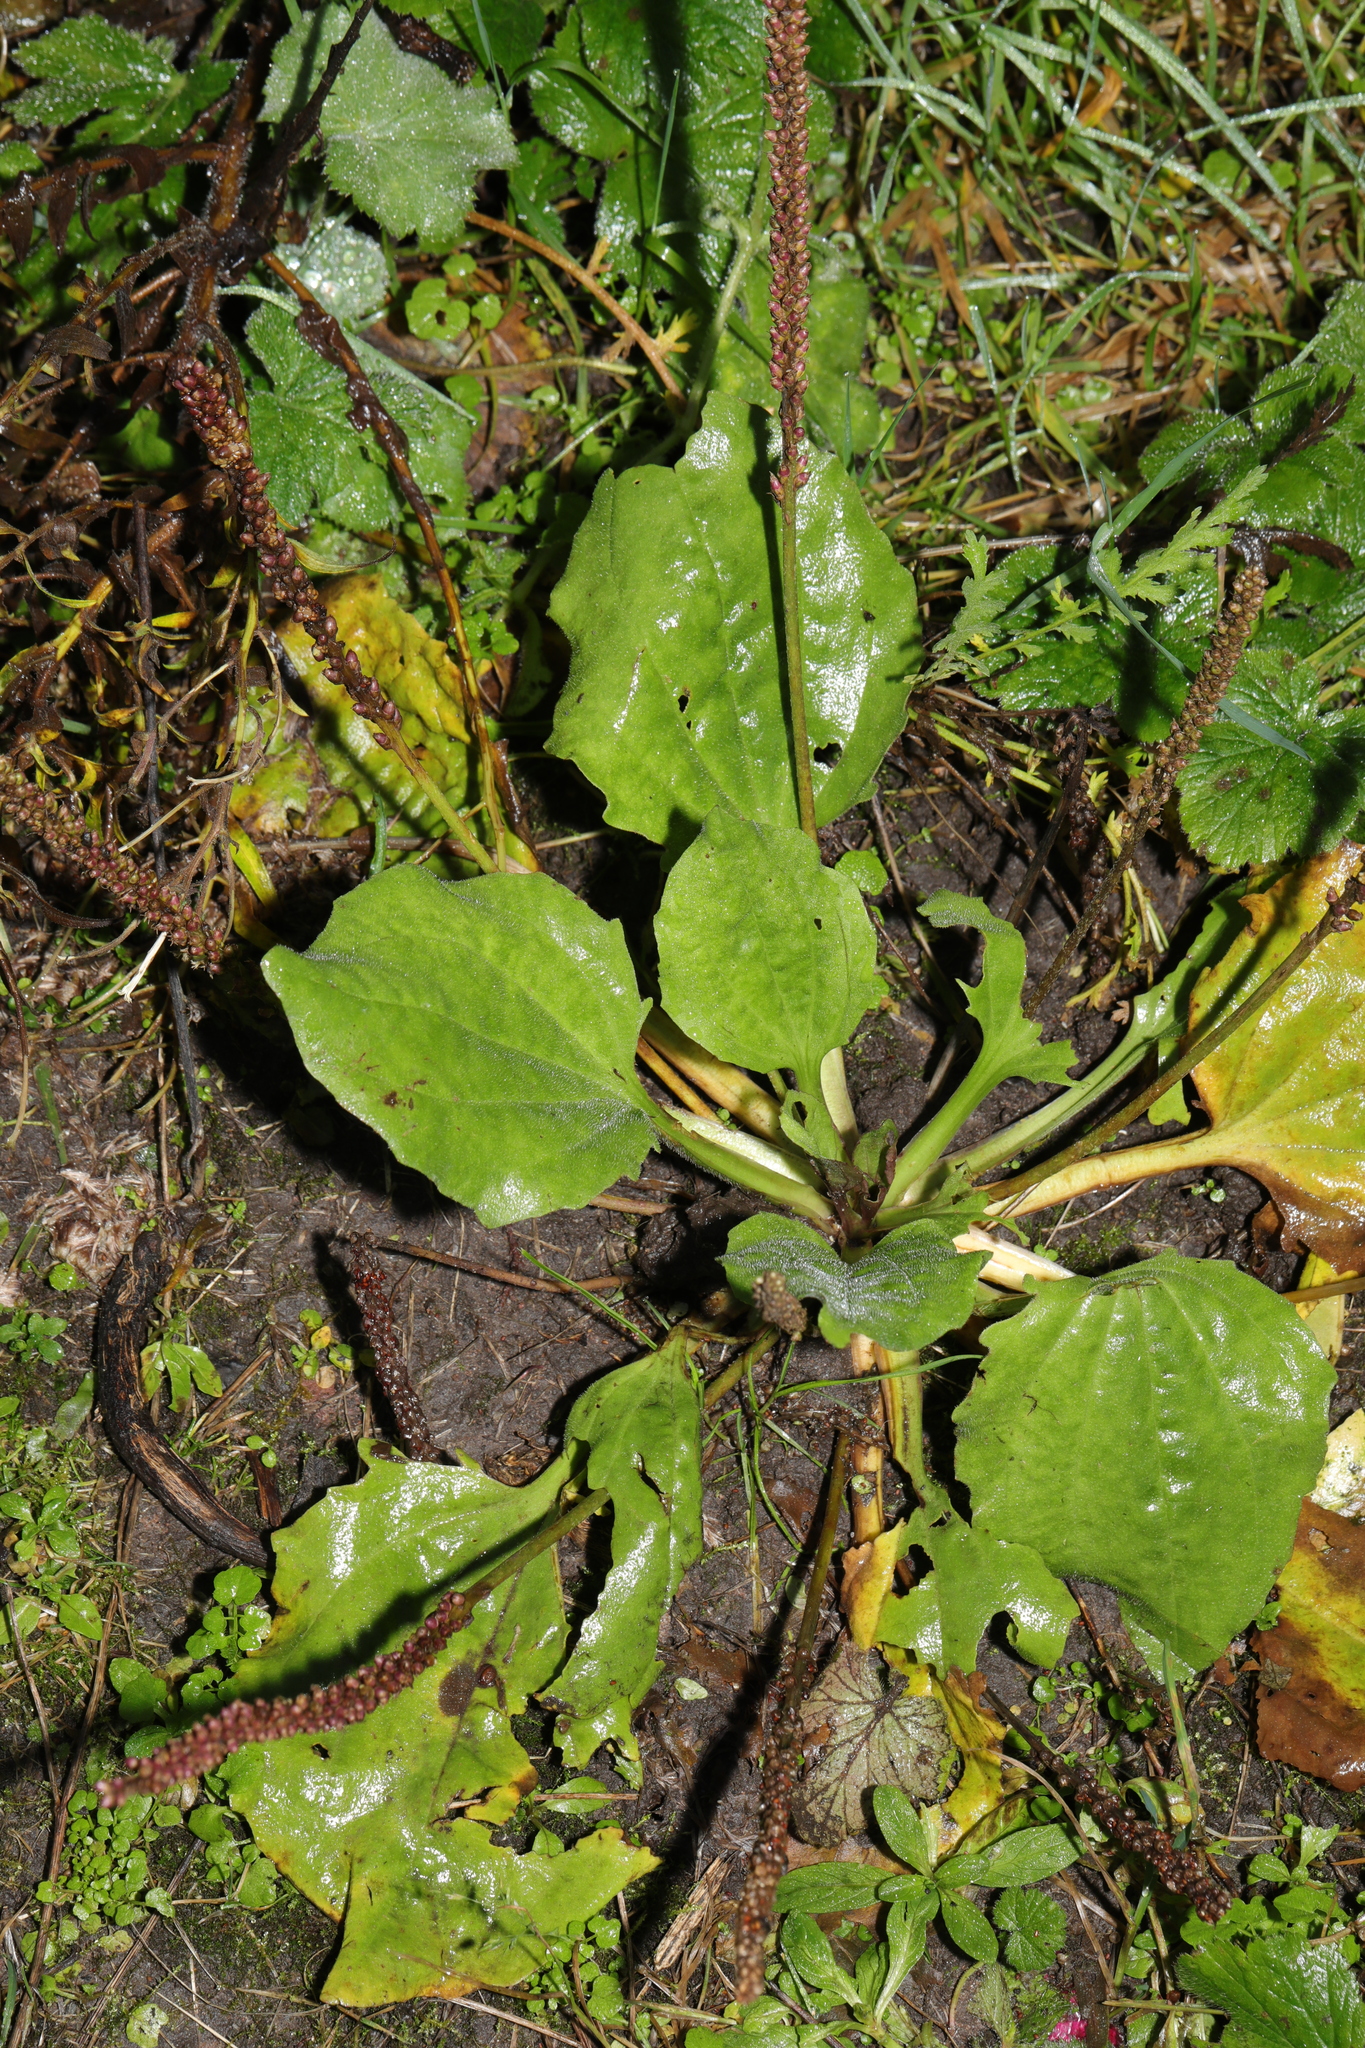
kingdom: Plantae
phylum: Tracheophyta
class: Magnoliopsida
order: Lamiales
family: Plantaginaceae
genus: Plantago
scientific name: Plantago major
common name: Common plantain
